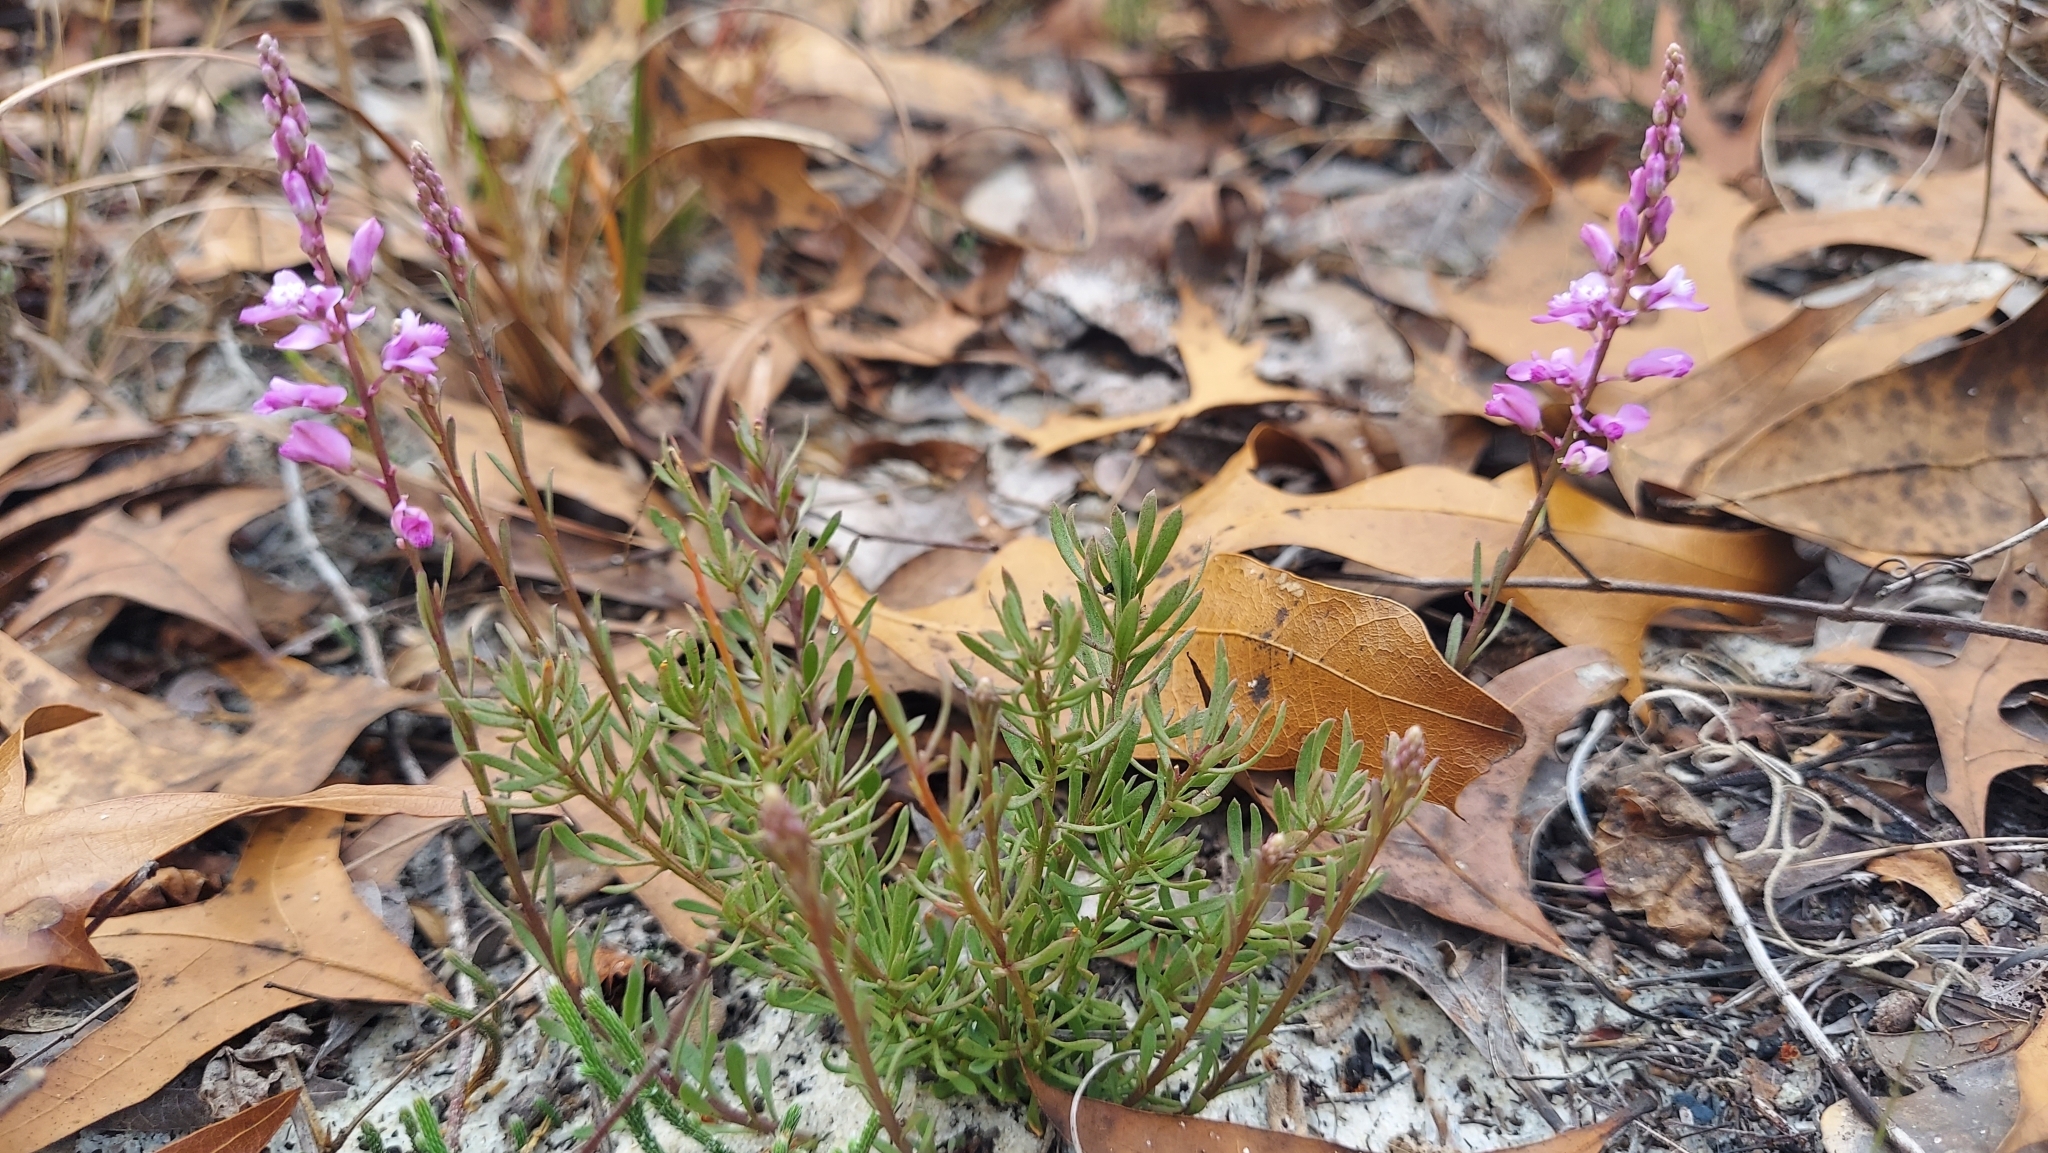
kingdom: Plantae
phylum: Tracheophyta
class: Magnoliopsida
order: Fabales
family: Polygalaceae
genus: Polygala
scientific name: Polygala lewtonii
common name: Lewton's polygala
